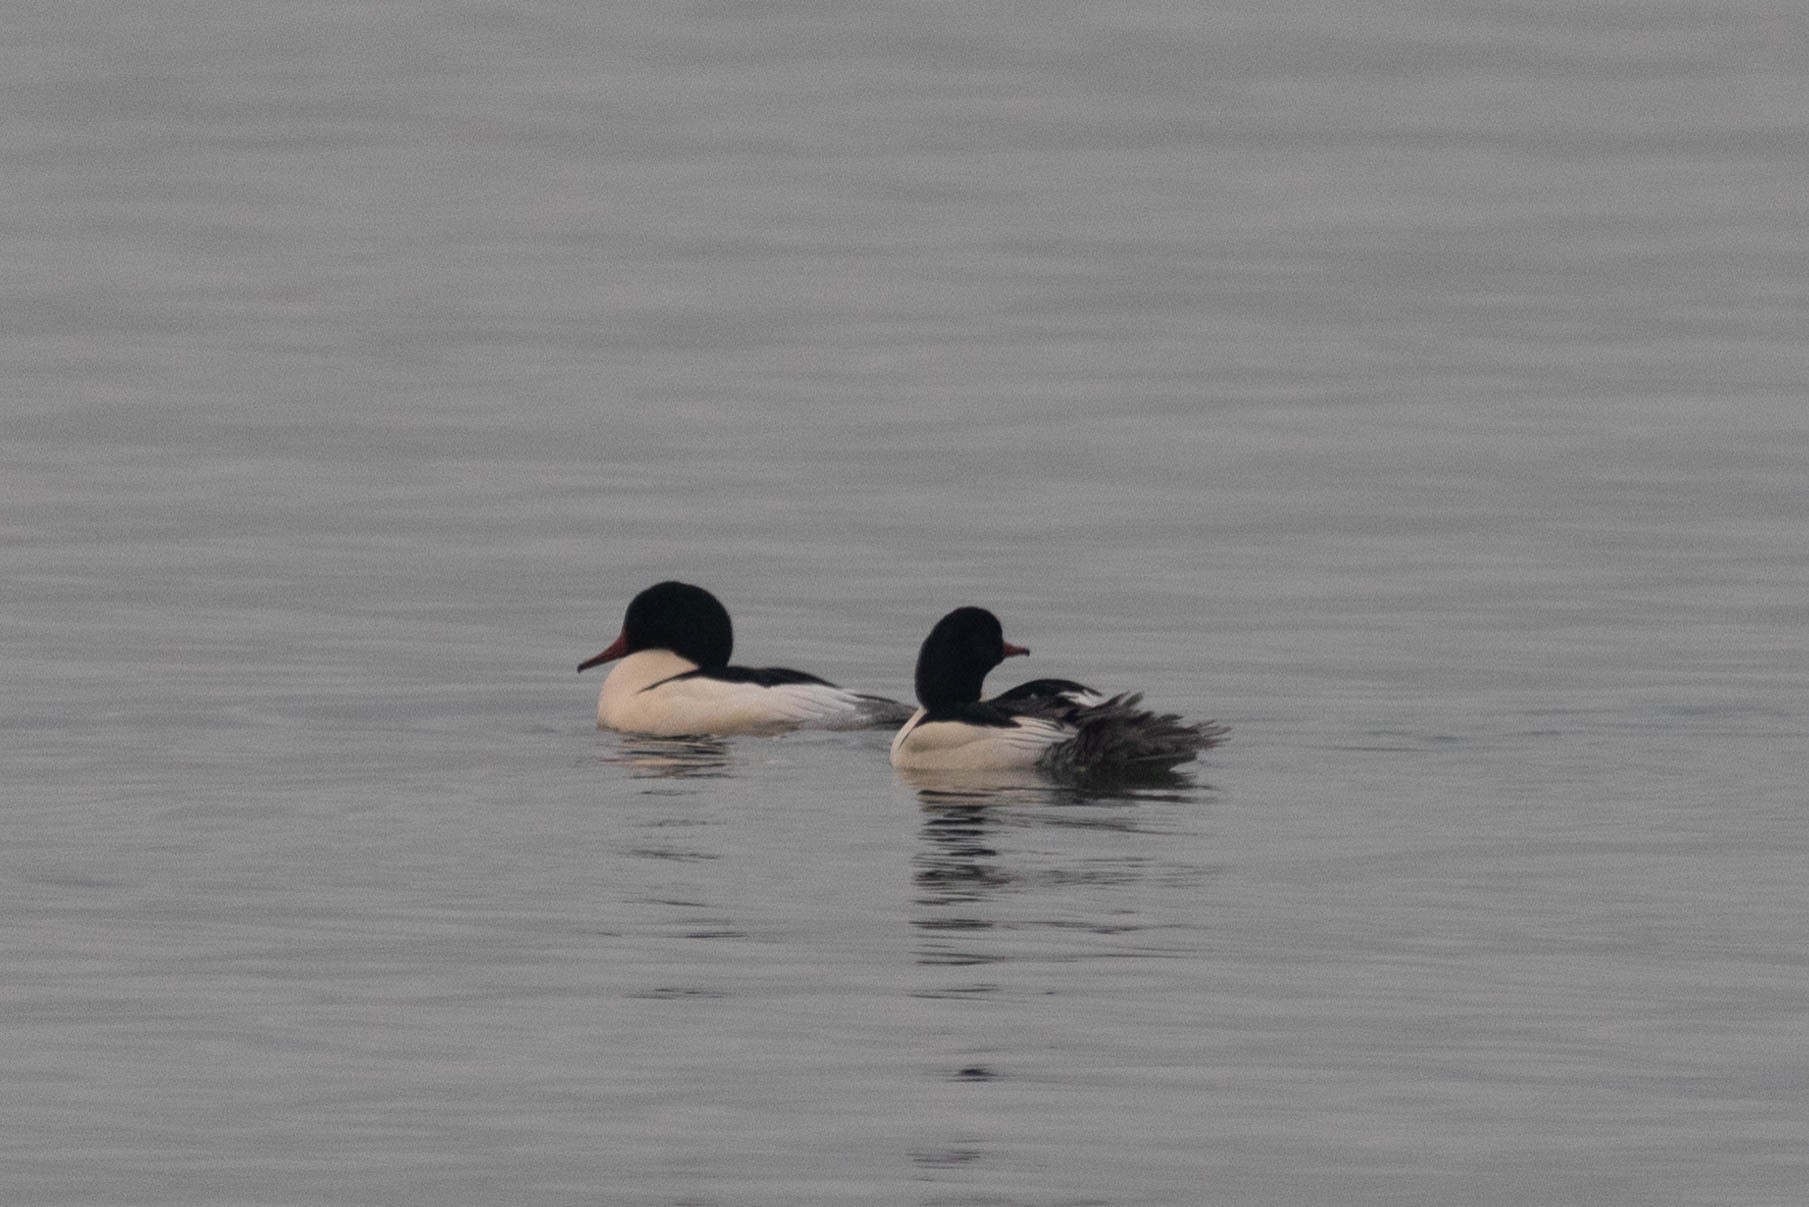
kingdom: Animalia
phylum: Chordata
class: Aves
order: Anseriformes
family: Anatidae
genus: Mergus
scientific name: Mergus merganser
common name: Common merganser
